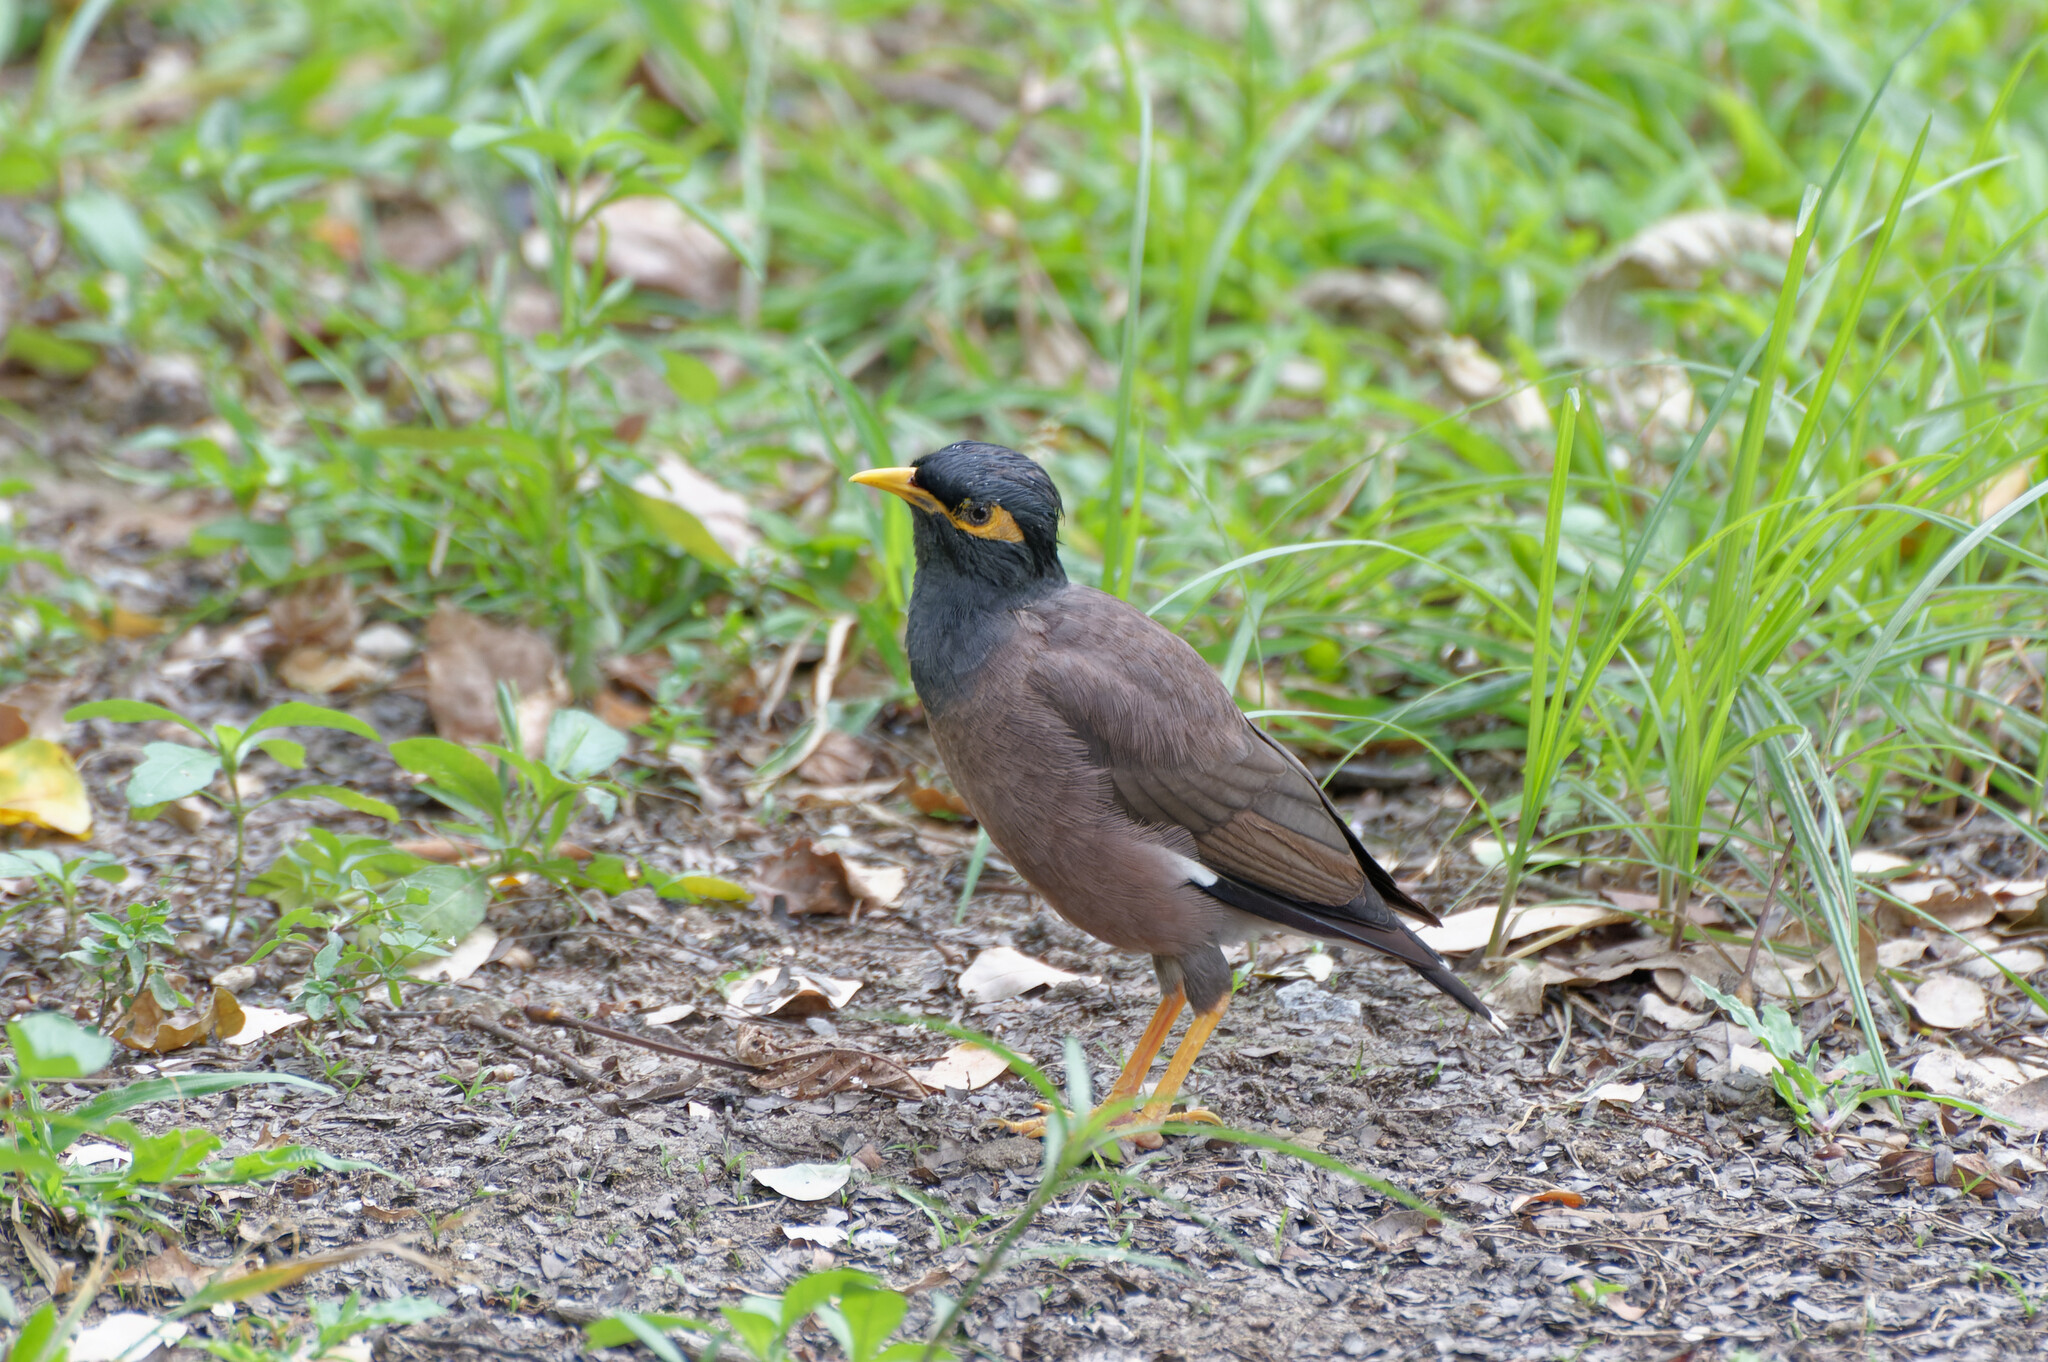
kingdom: Animalia
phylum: Chordata
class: Aves
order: Passeriformes
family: Sturnidae
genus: Acridotheres
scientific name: Acridotheres tristis
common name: Common myna
